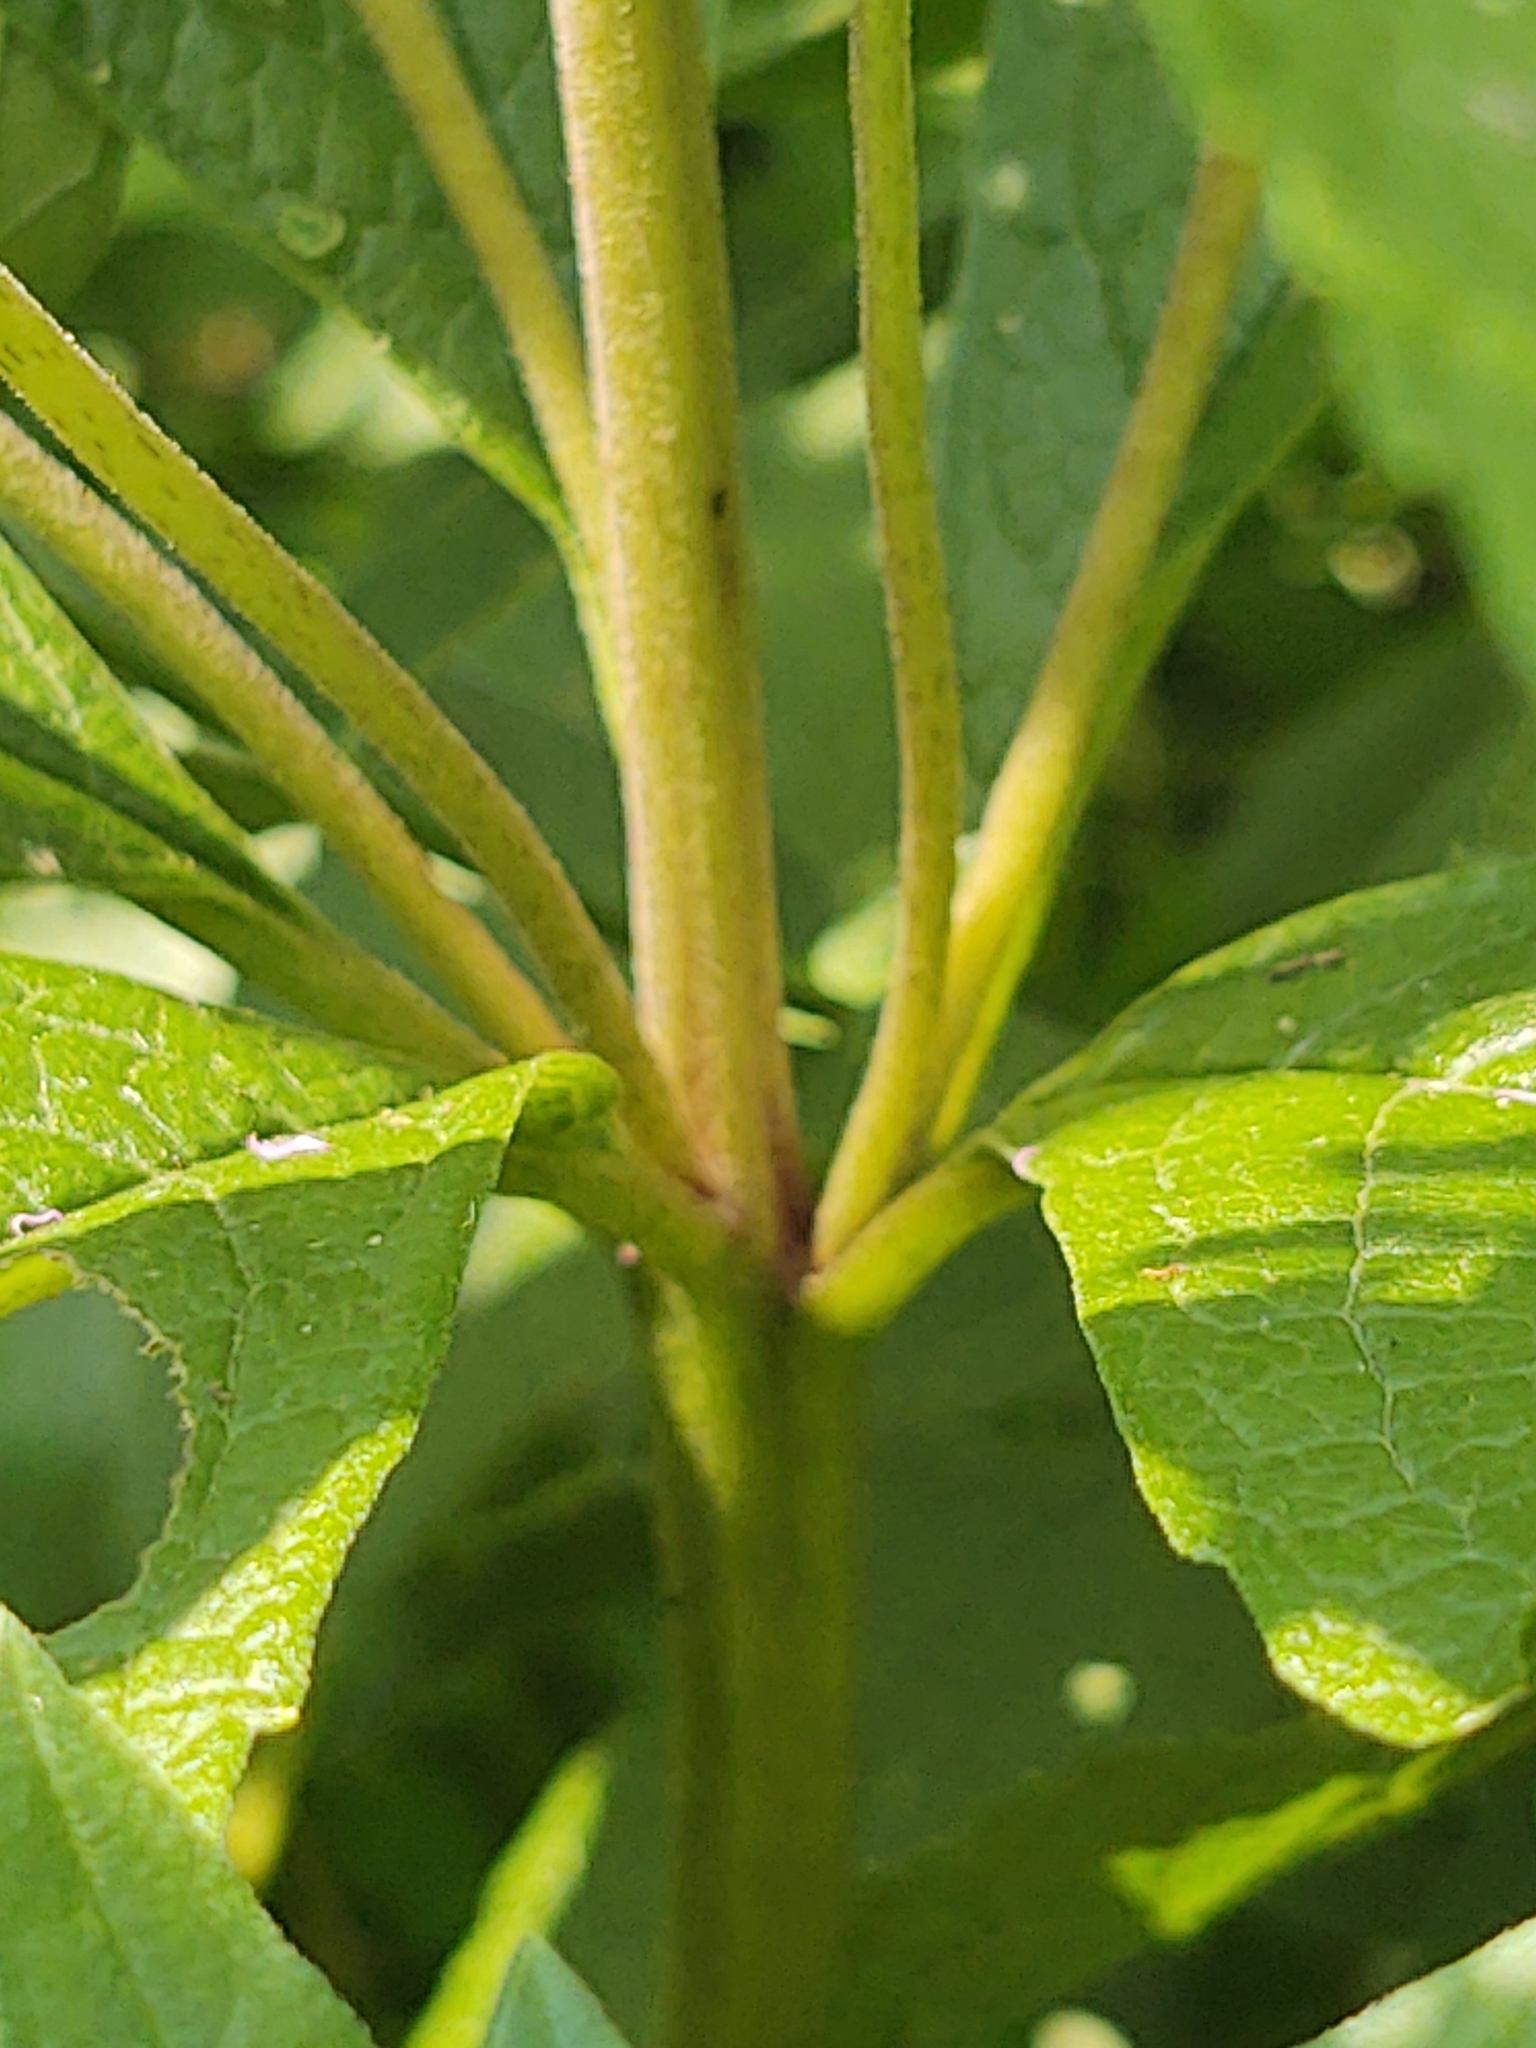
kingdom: Plantae
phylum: Tracheophyta
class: Magnoliopsida
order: Asterales
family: Asteraceae
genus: Eutrochium
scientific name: Eutrochium maculatum
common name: Spotted joe pye weed
